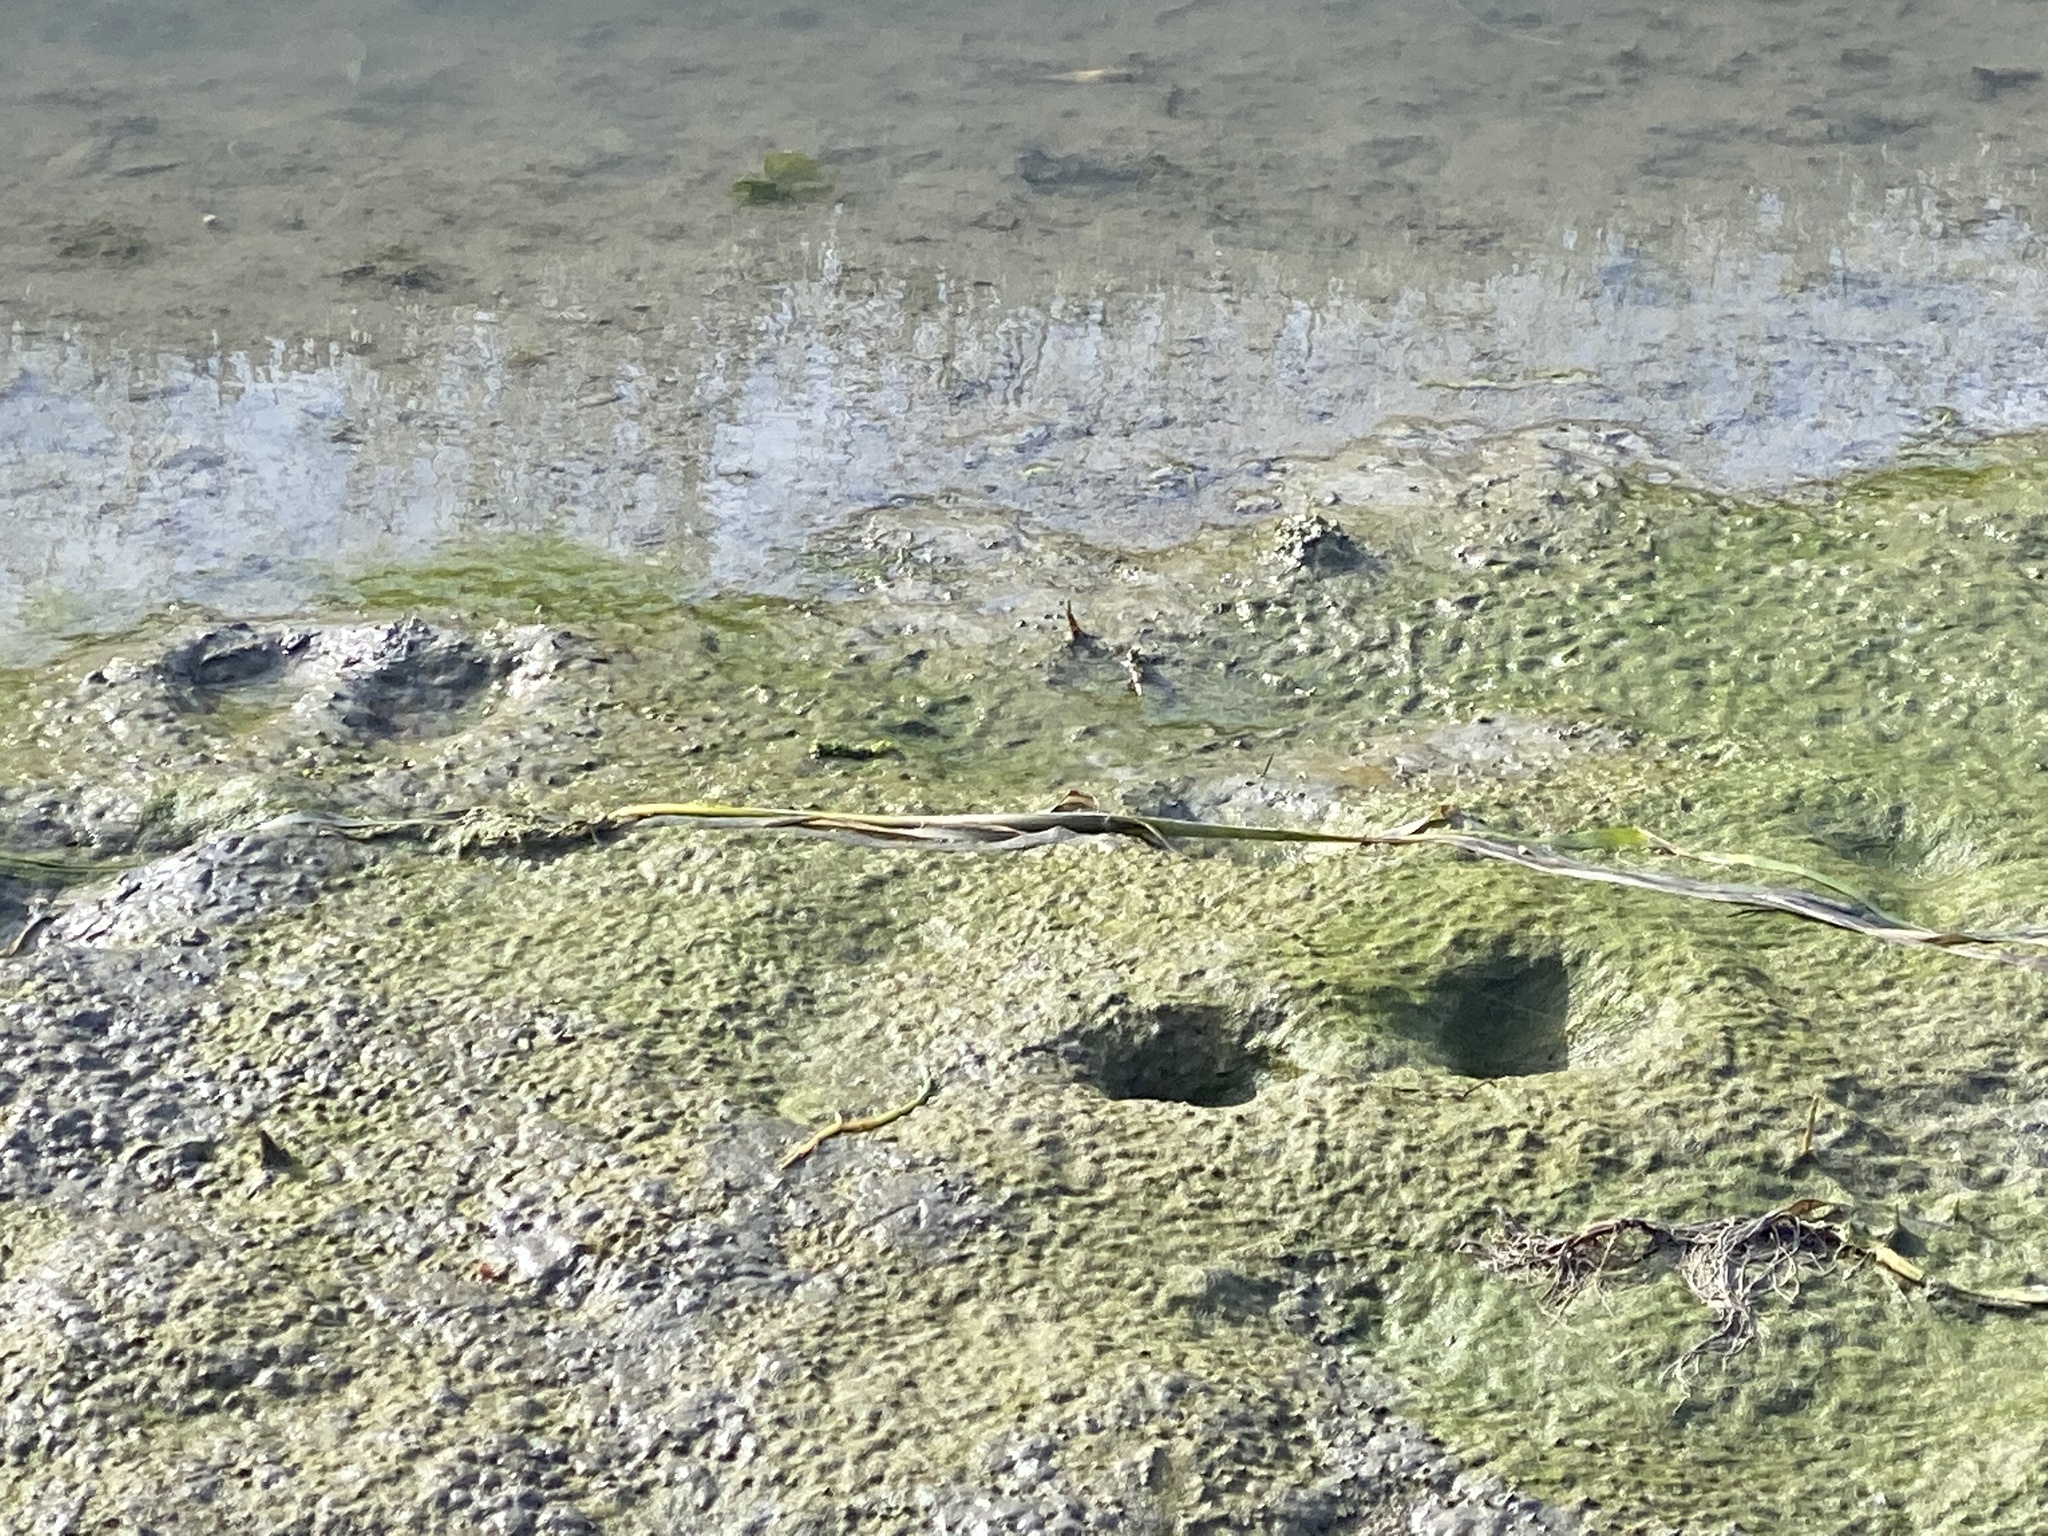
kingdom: Plantae
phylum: Tracheophyta
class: Liliopsida
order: Alismatales
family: Zosteraceae
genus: Zostera
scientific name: Zostera marina
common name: Eelgrass
